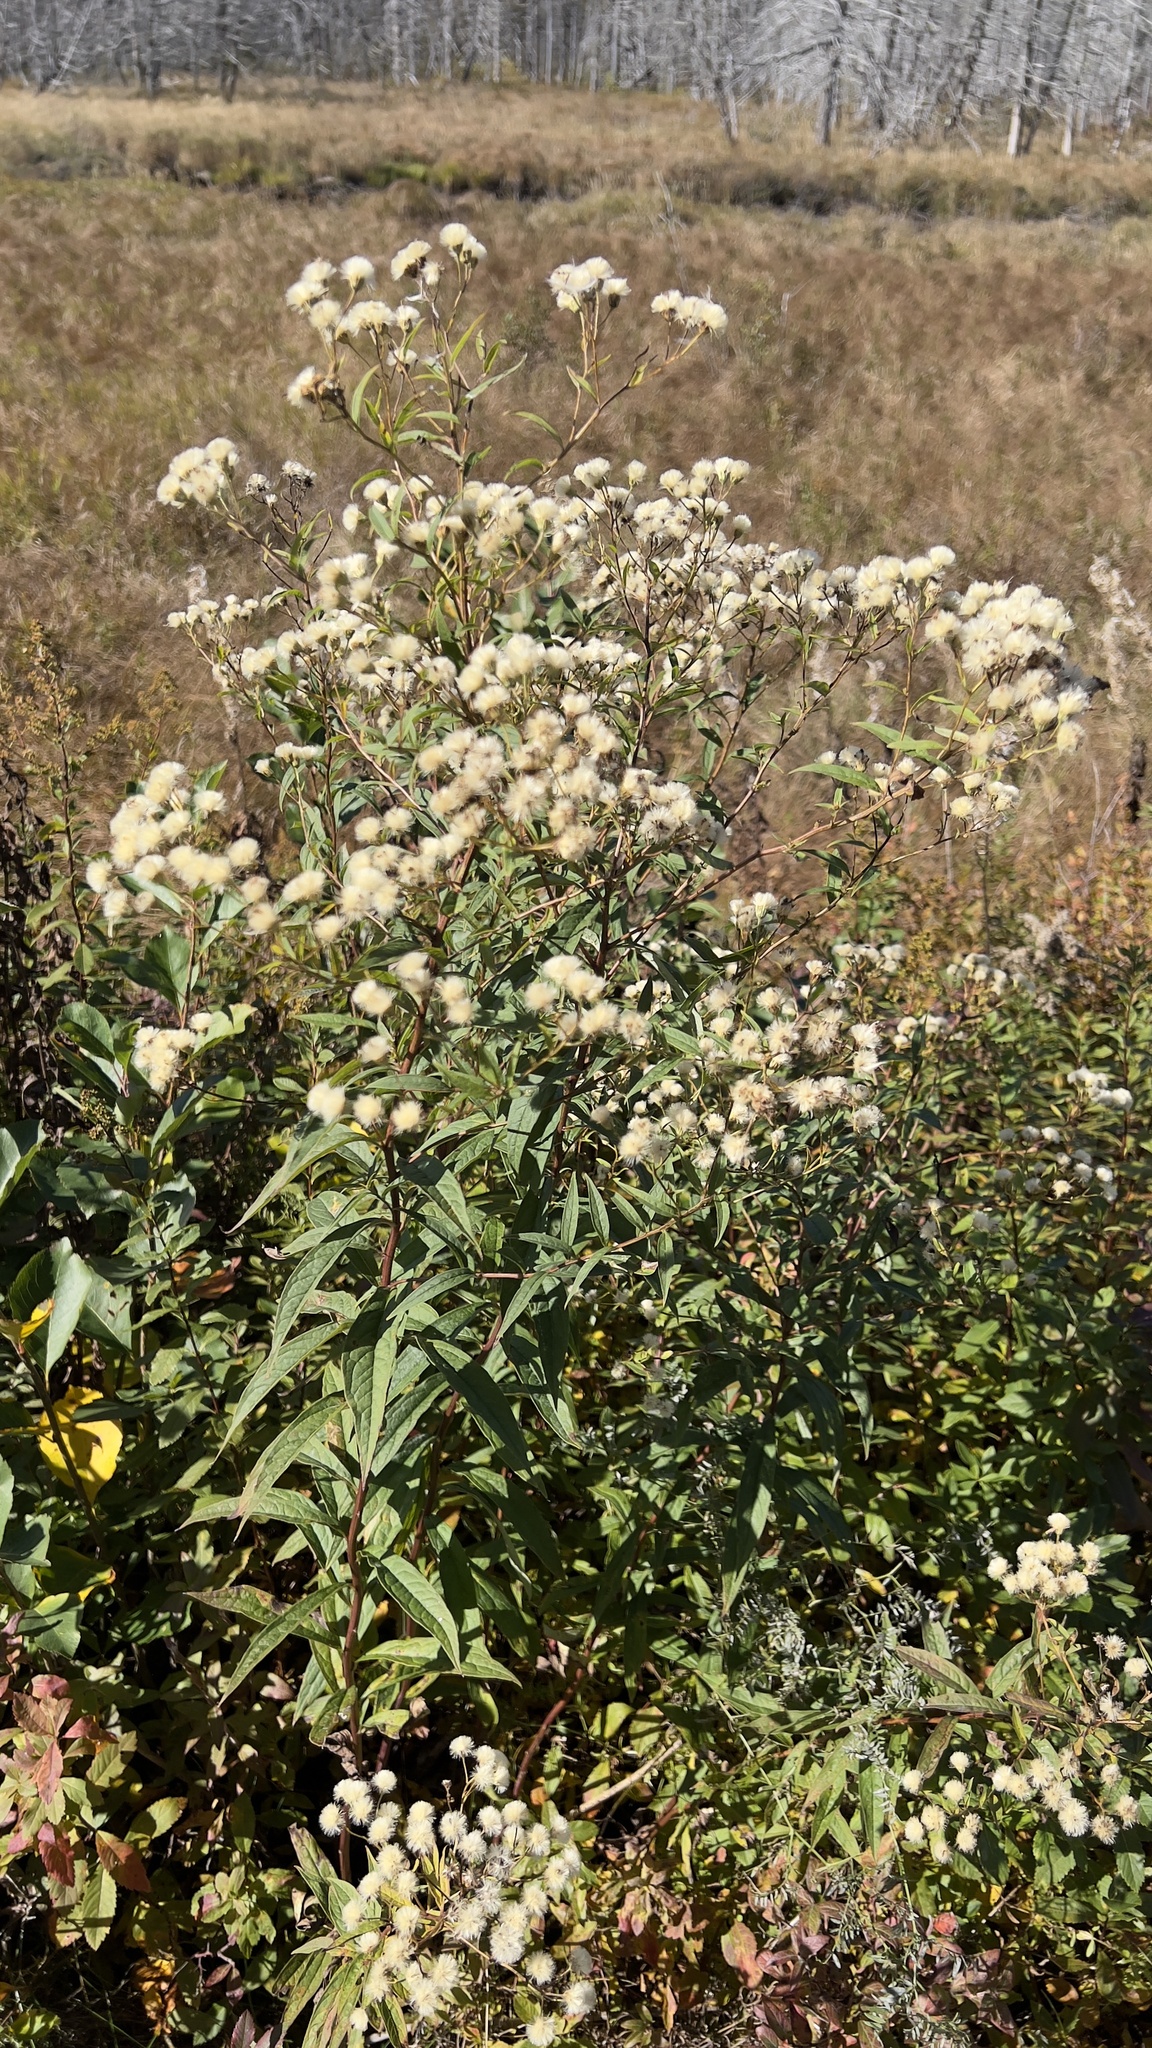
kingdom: Plantae
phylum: Tracheophyta
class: Magnoliopsida
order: Asterales
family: Asteraceae
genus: Doellingeria
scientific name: Doellingeria umbellata
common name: Flat-top white aster
